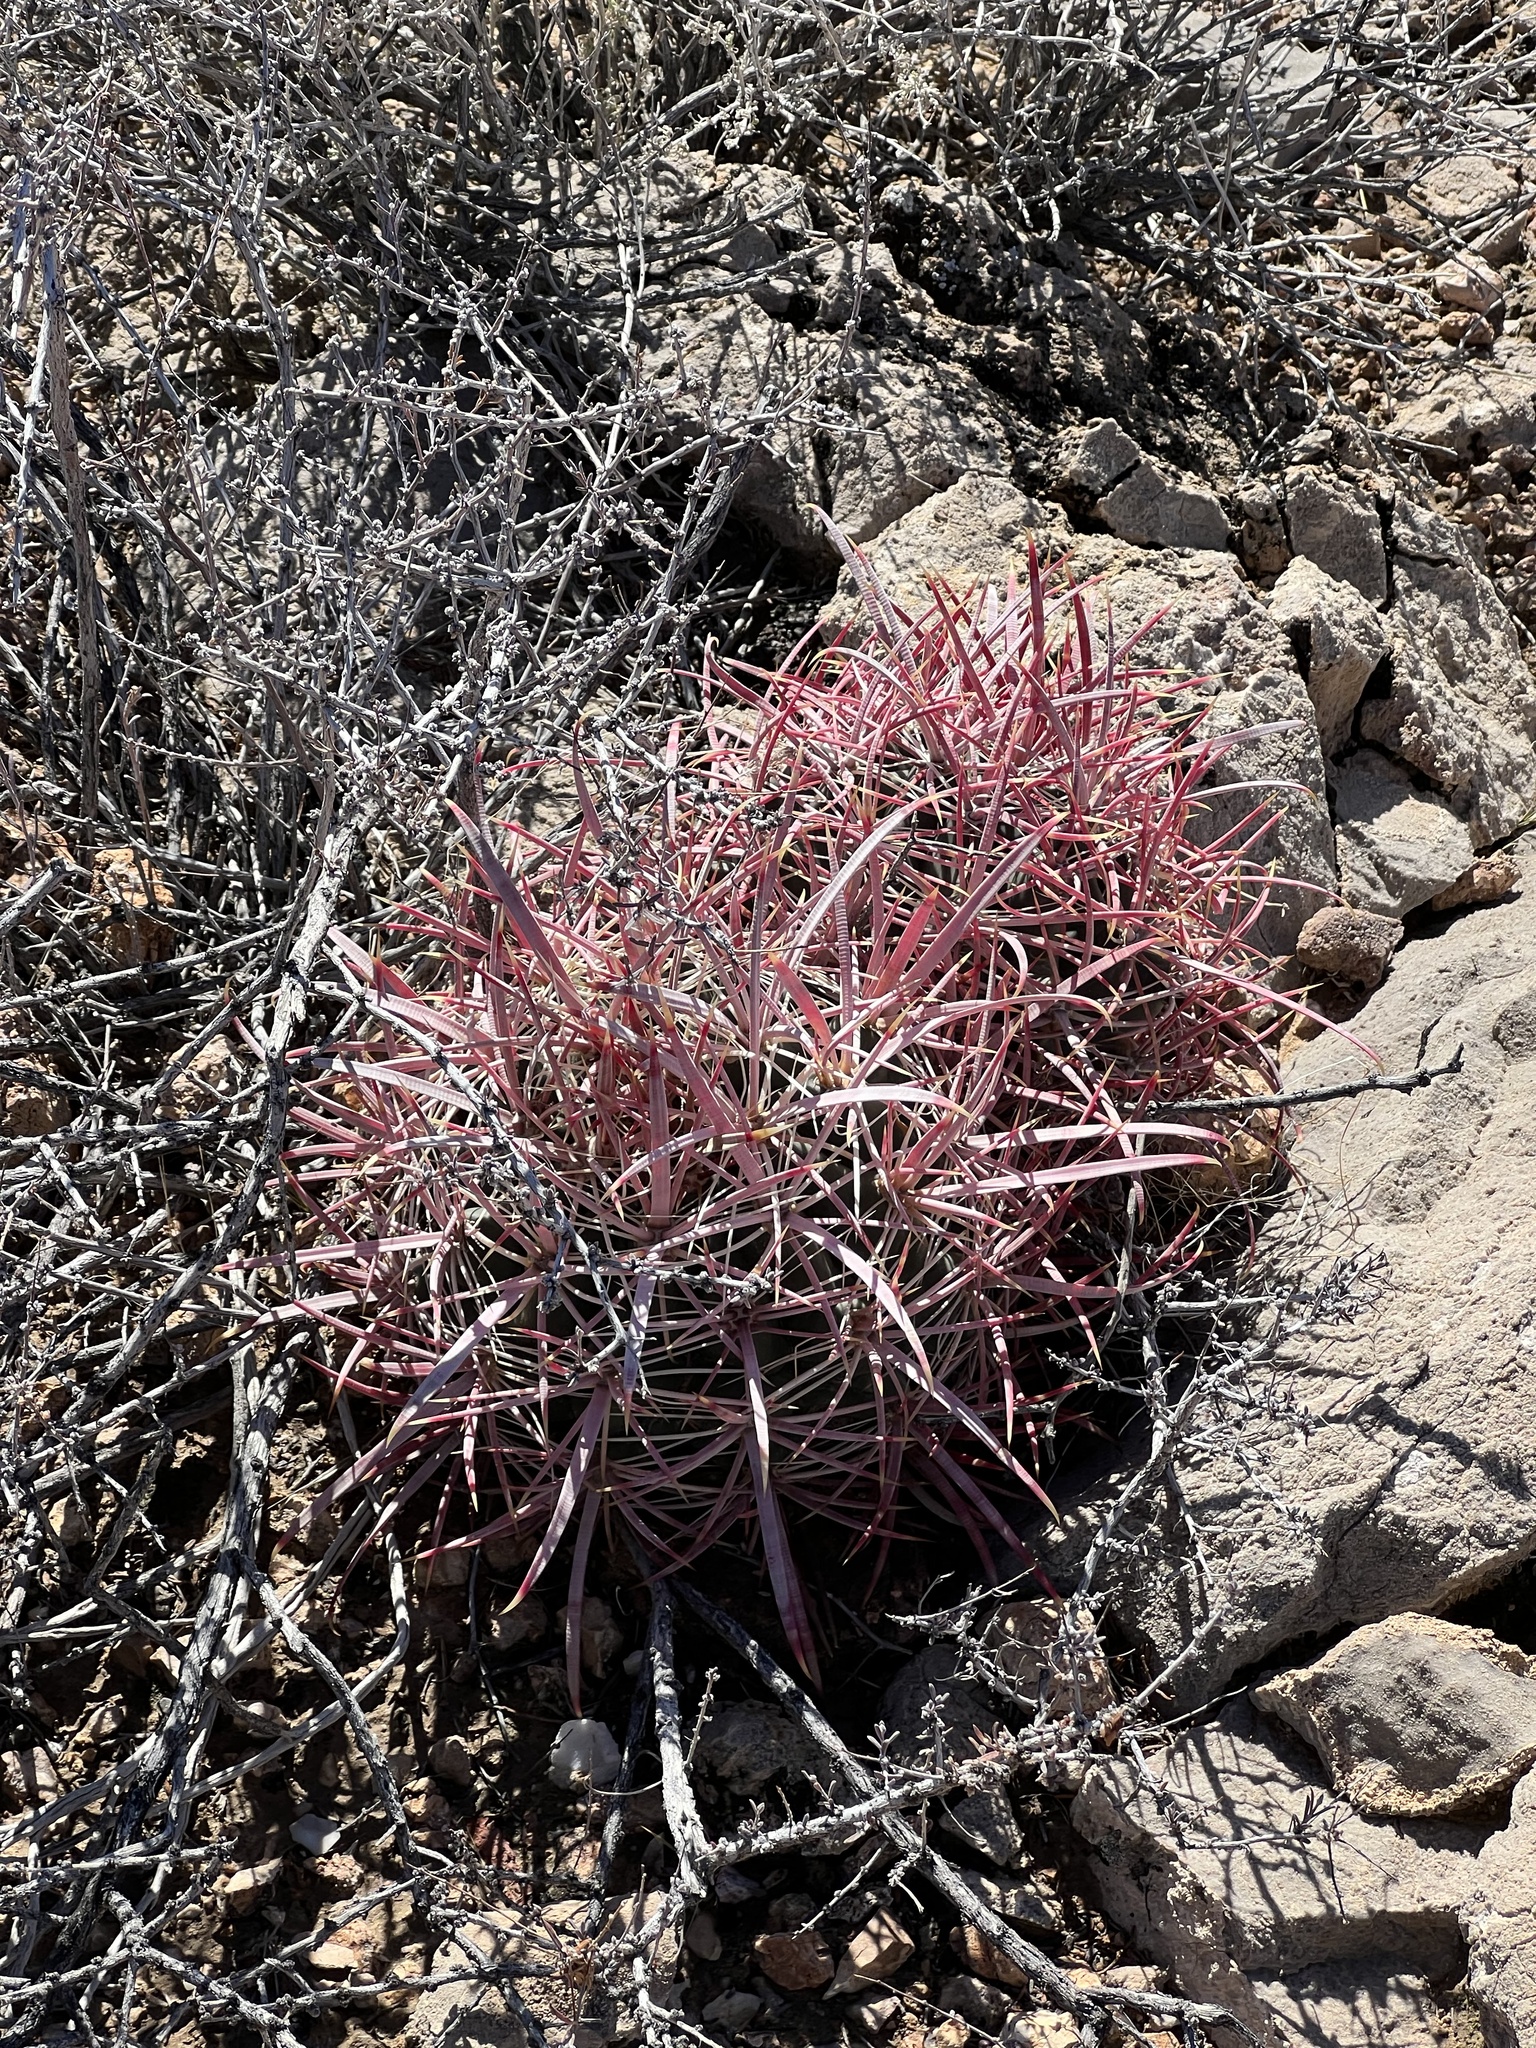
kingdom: Plantae
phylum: Tracheophyta
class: Magnoliopsida
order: Caryophyllales
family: Cactaceae
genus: Ferocactus
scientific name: Ferocactus cylindraceus
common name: California barrel cactus
